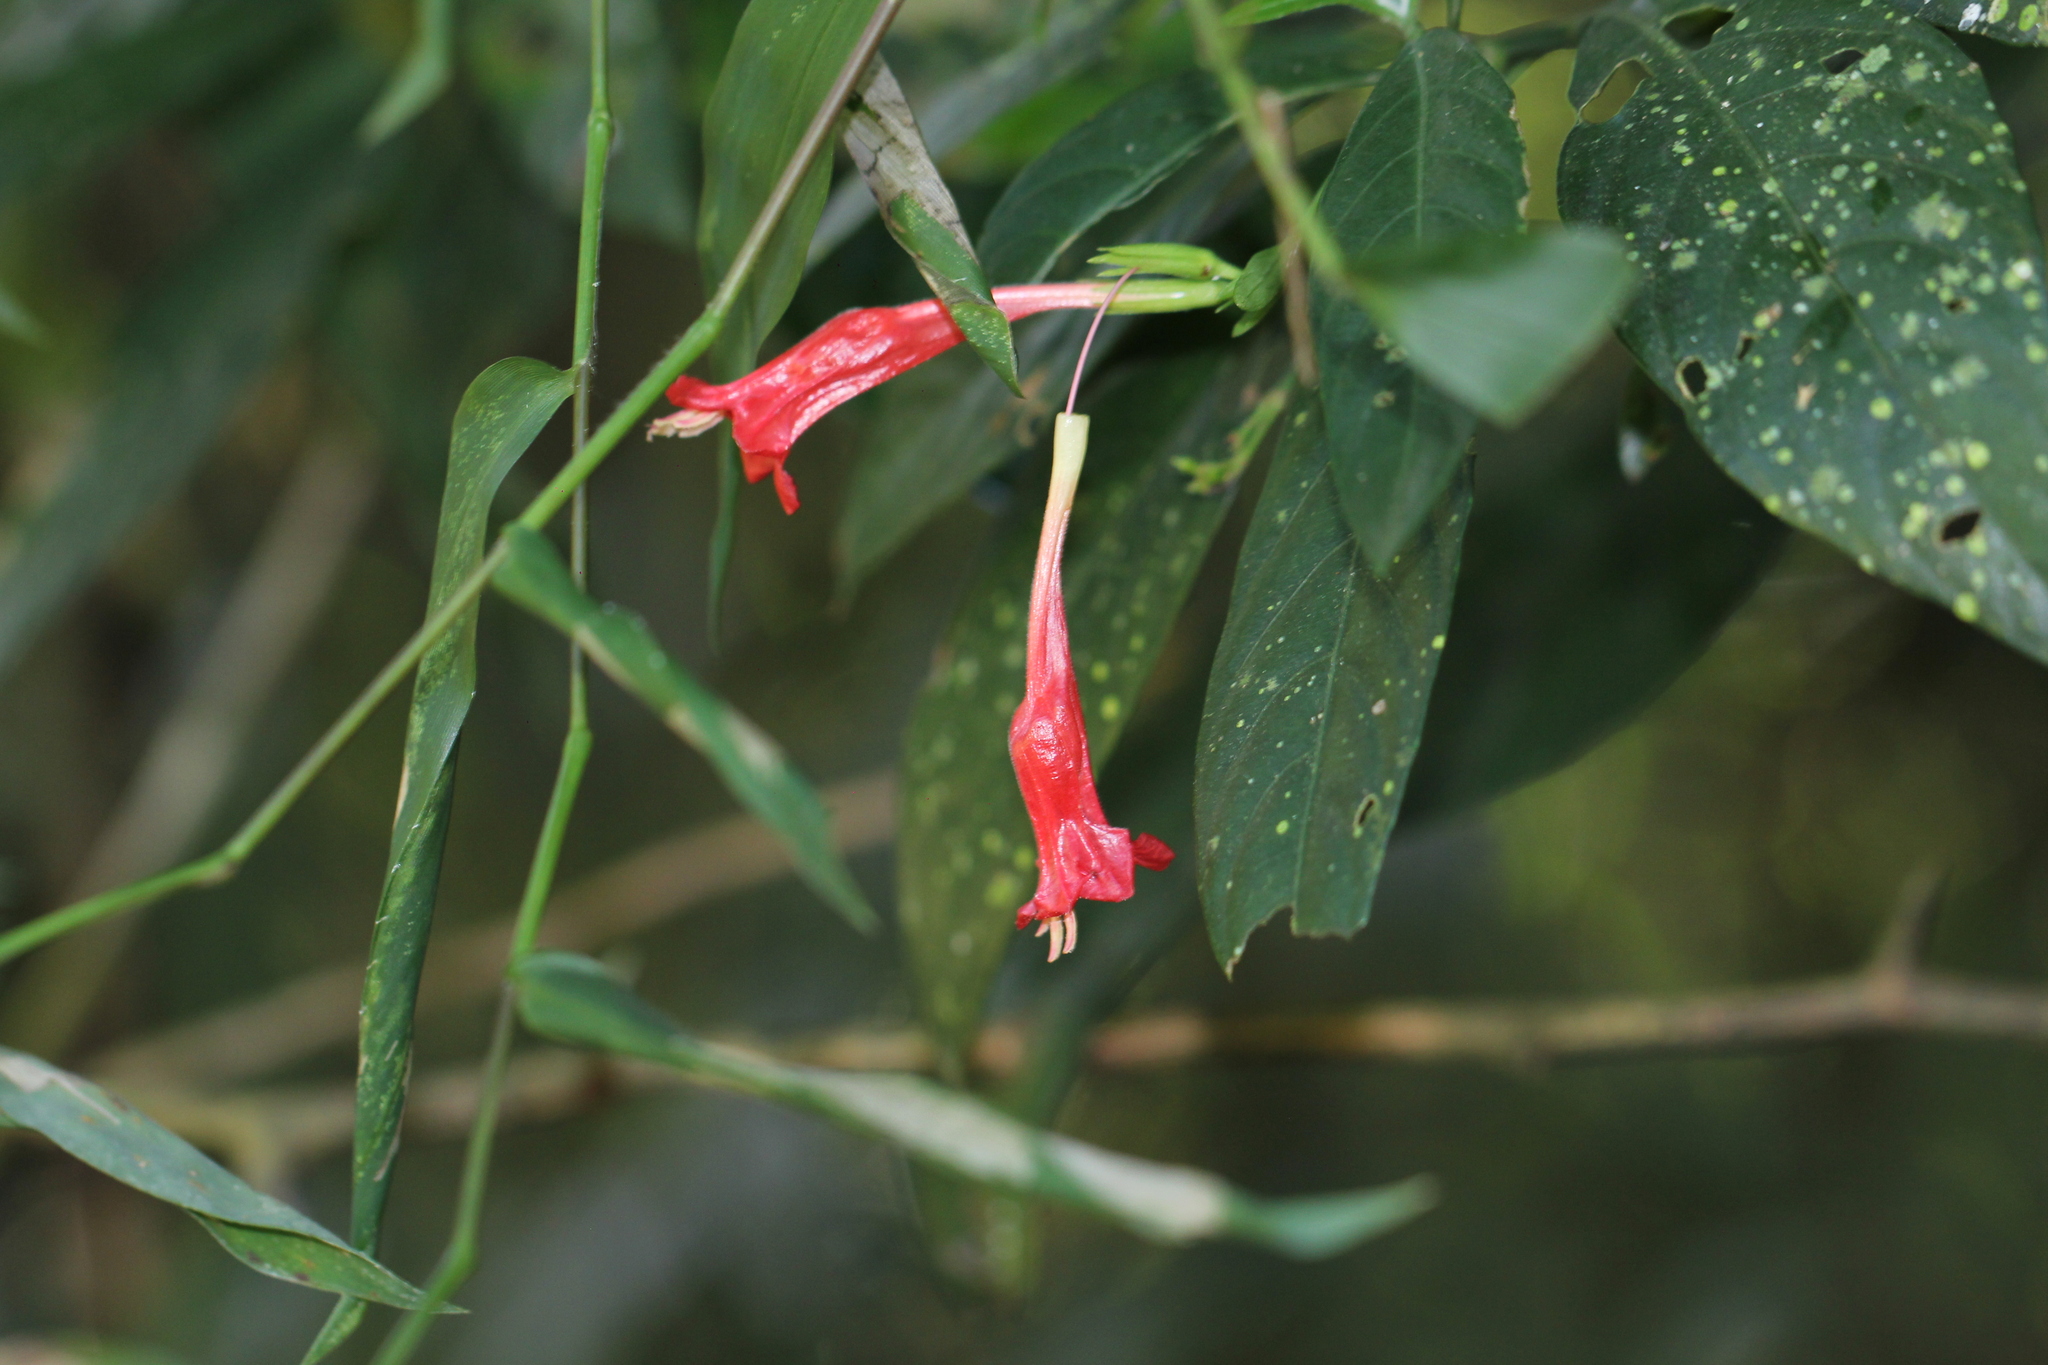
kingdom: Plantae
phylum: Tracheophyta
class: Magnoliopsida
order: Lamiales
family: Acanthaceae
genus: Ruellia
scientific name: Ruellia angustiflora
